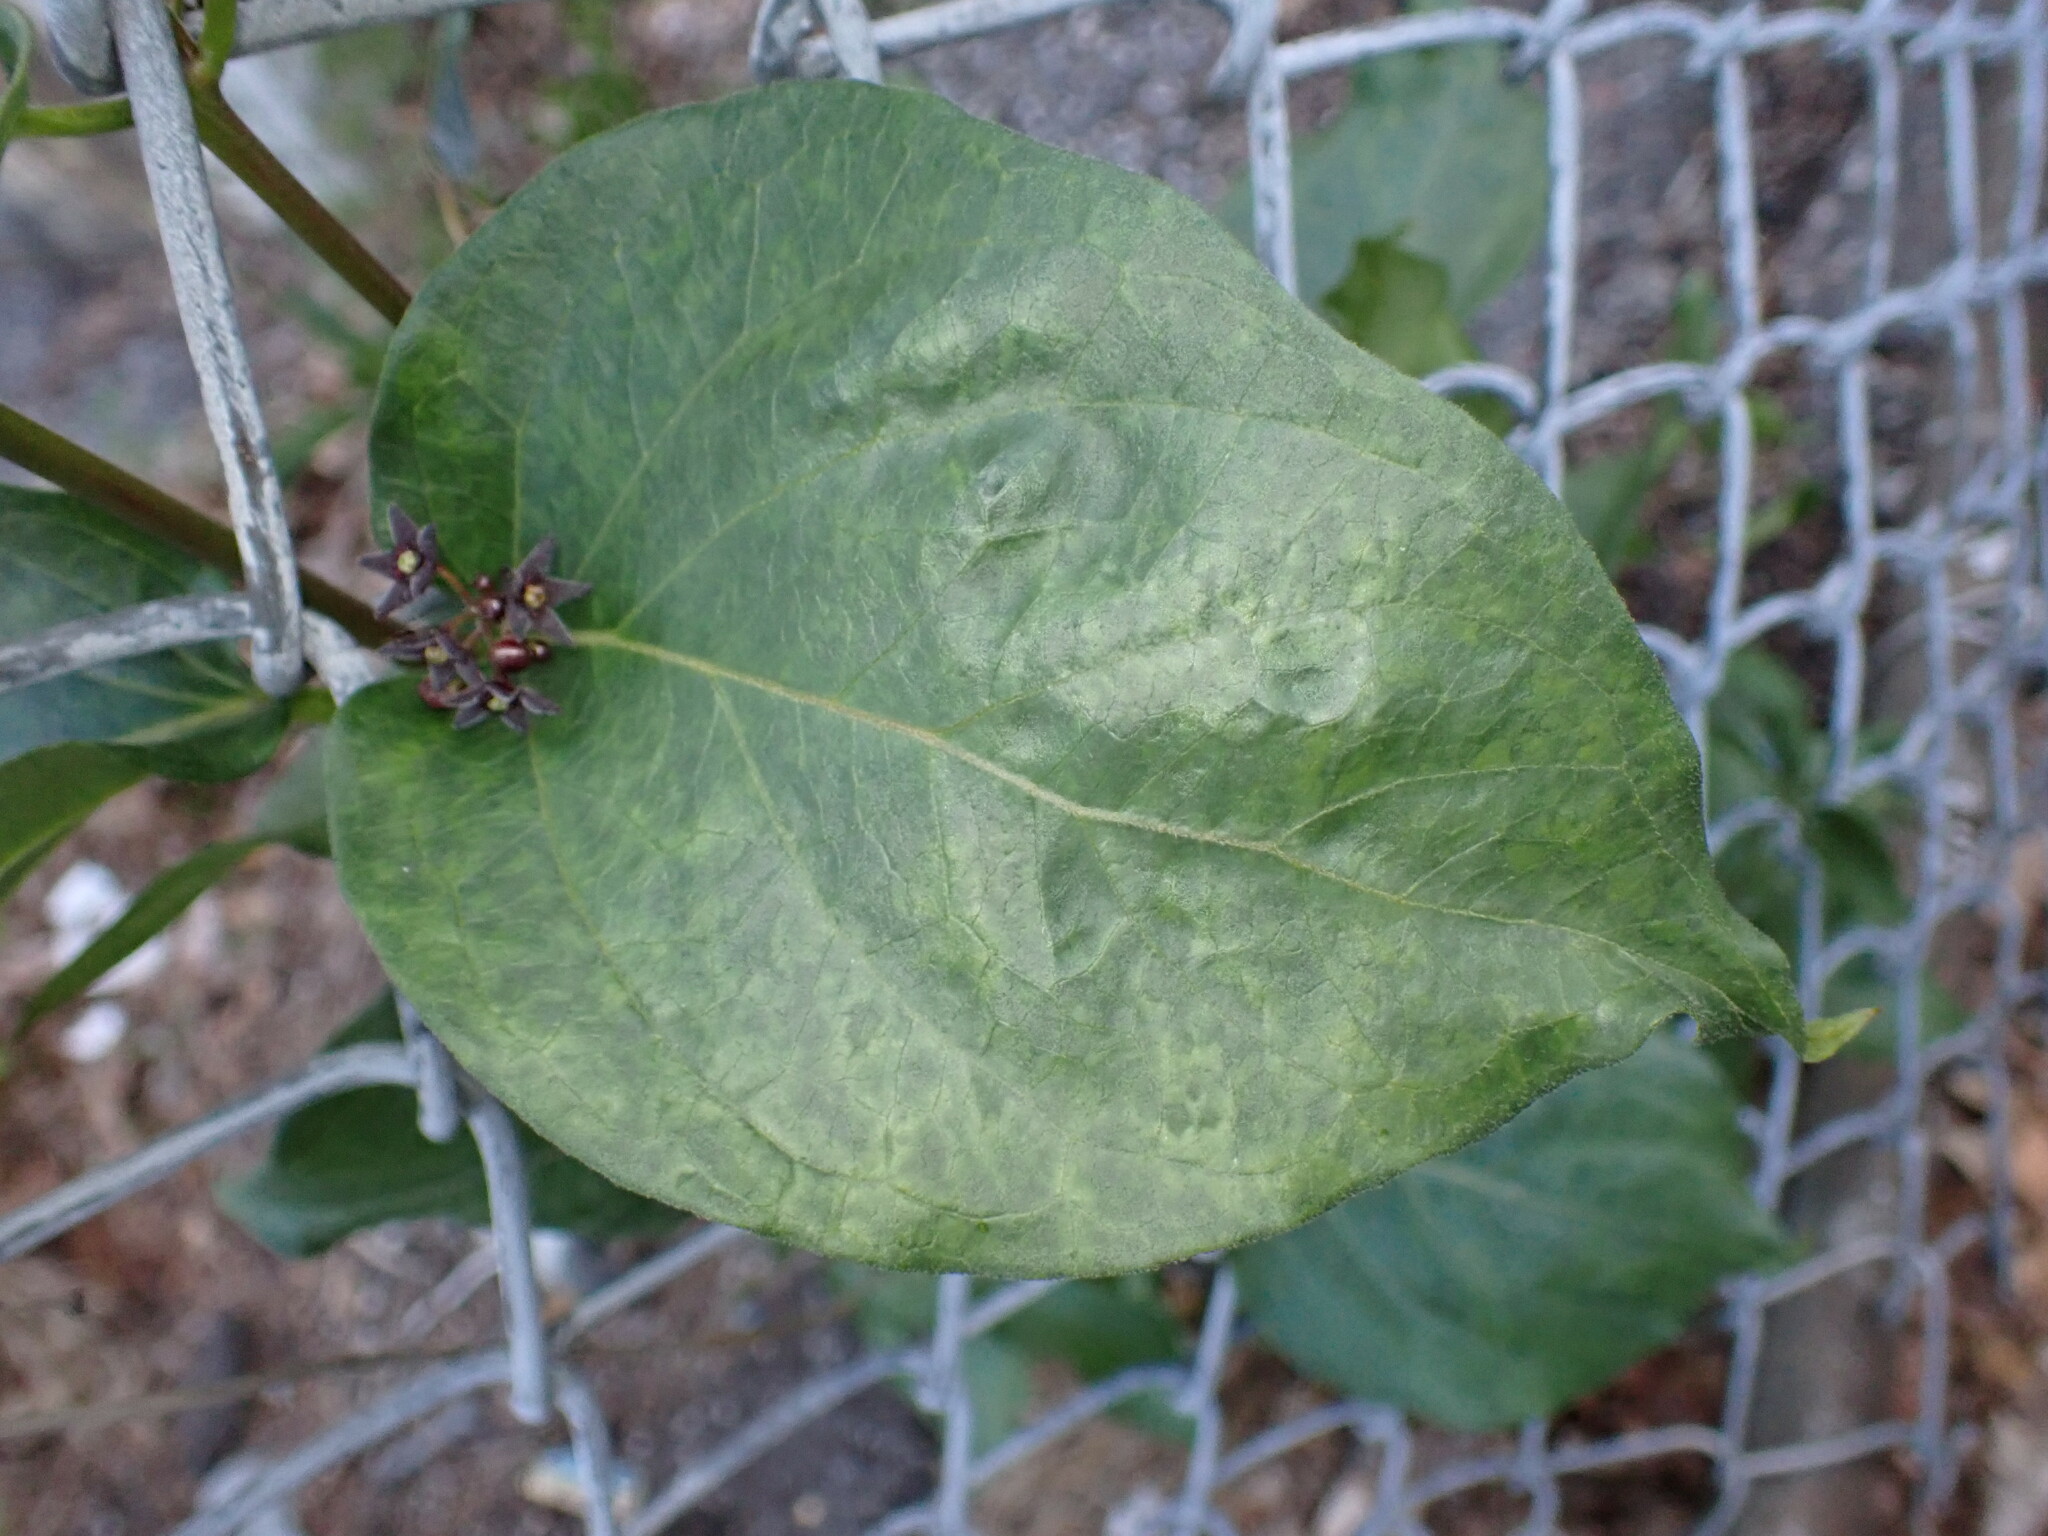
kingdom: Plantae
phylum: Tracheophyta
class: Magnoliopsida
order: Gentianales
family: Apocynaceae
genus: Vincetoxicum
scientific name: Vincetoxicum nigrum
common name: Black swallow-wort
